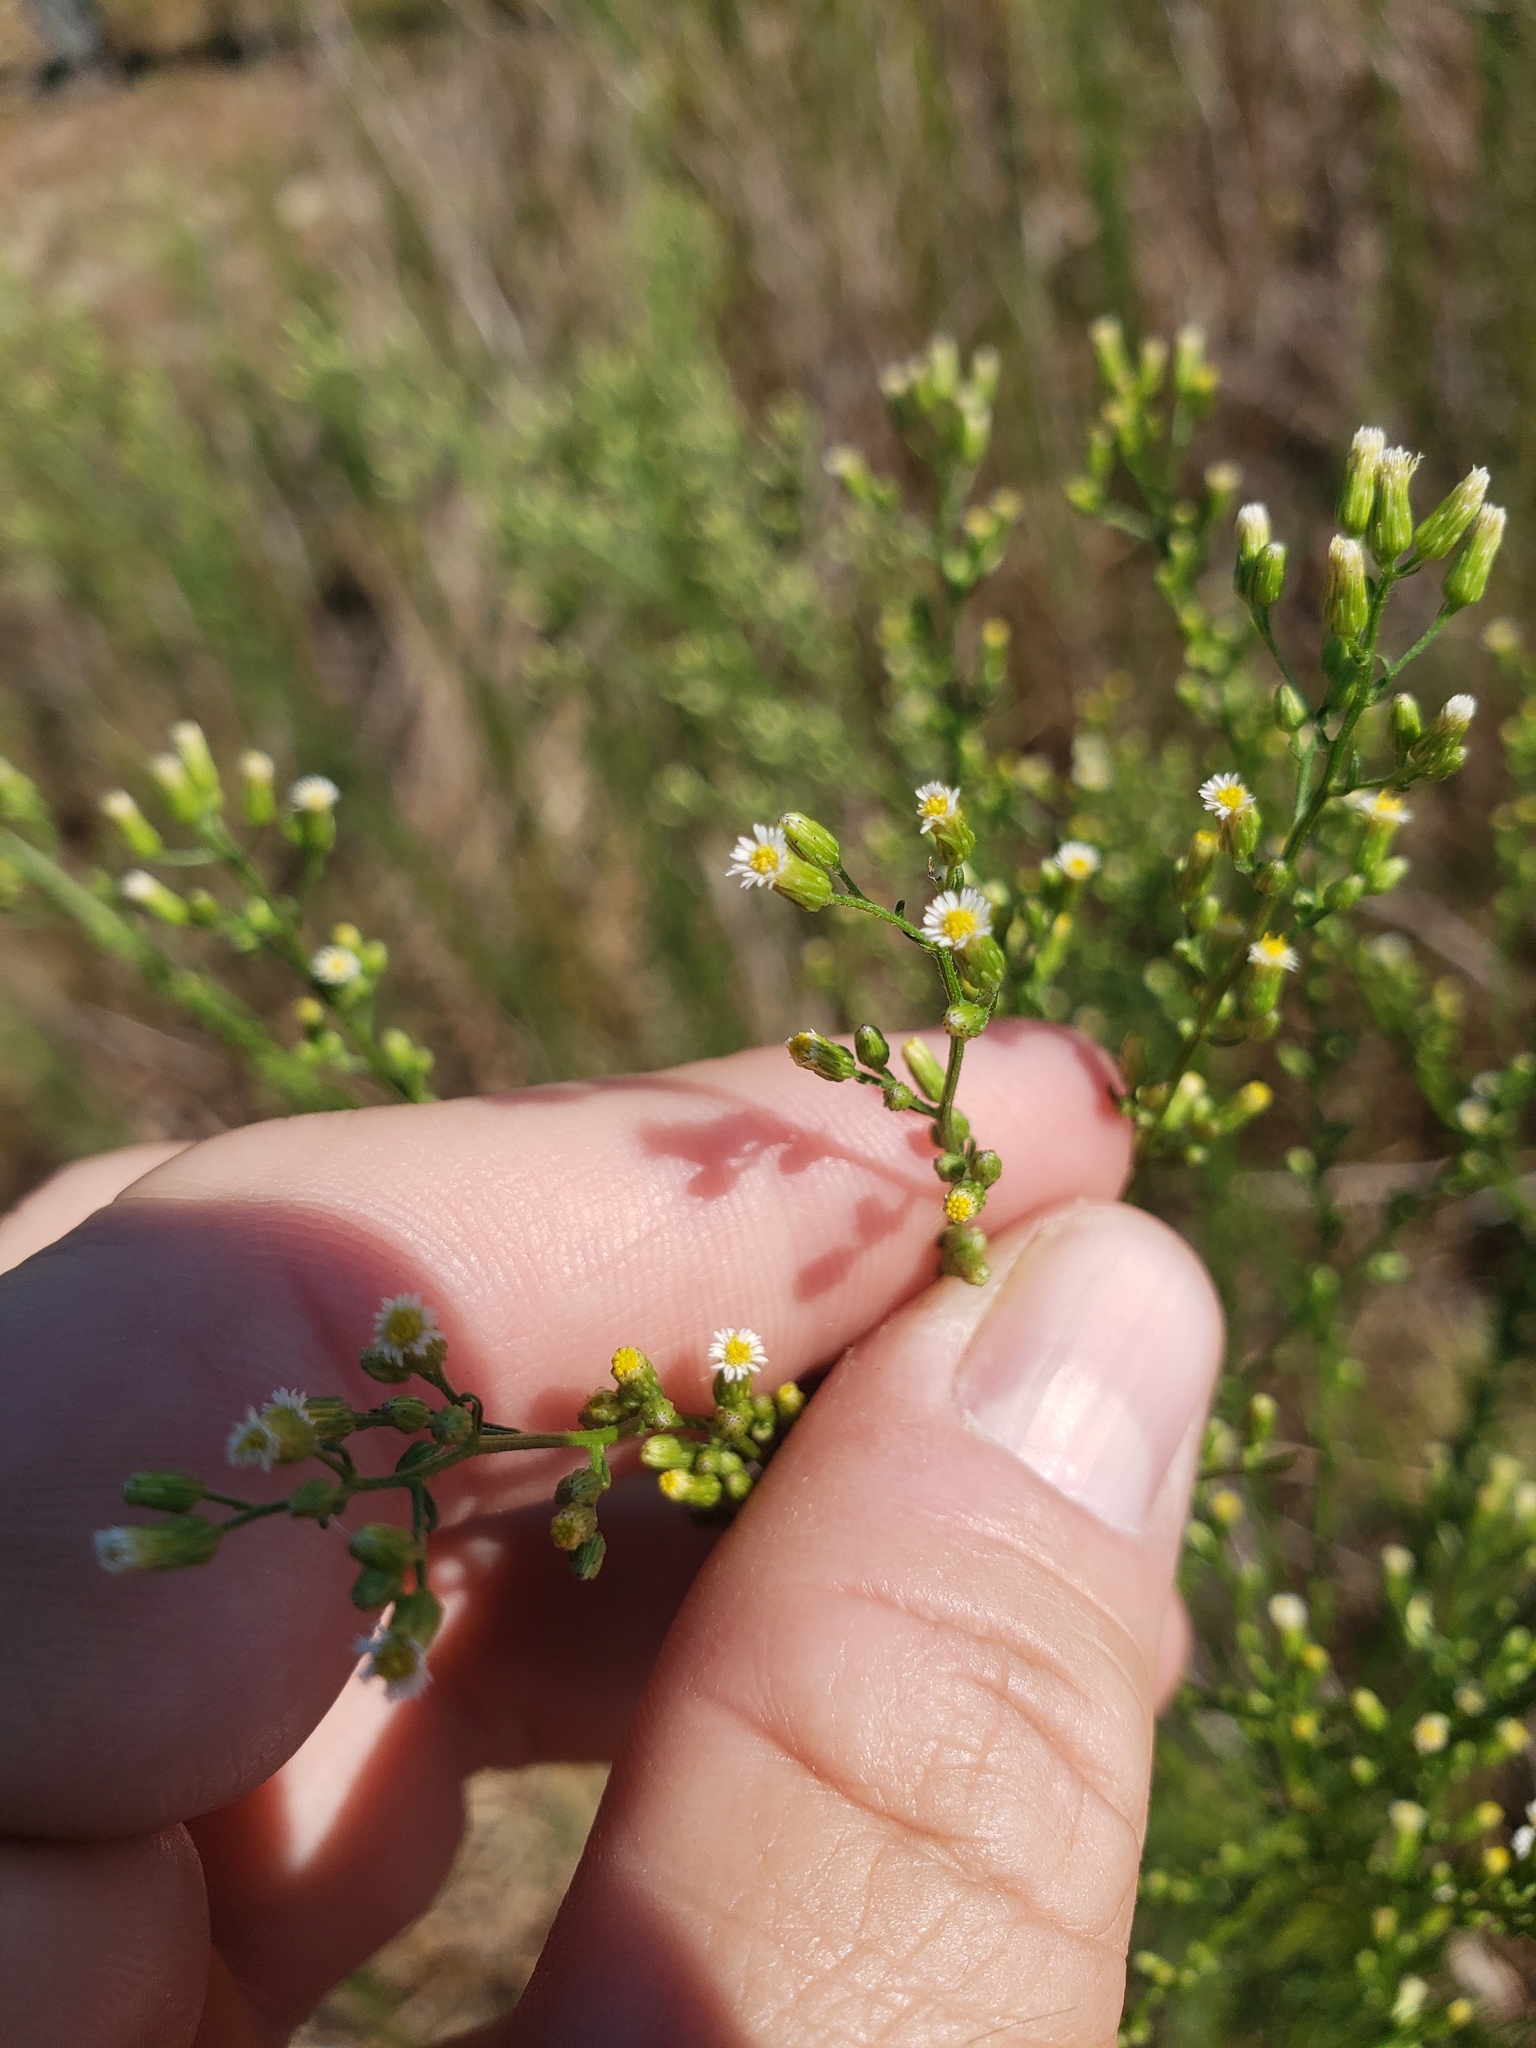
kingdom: Plantae
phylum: Tracheophyta
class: Magnoliopsida
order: Asterales
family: Asteraceae
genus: Erigeron
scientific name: Erigeron canadensis
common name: Canadian fleabane
